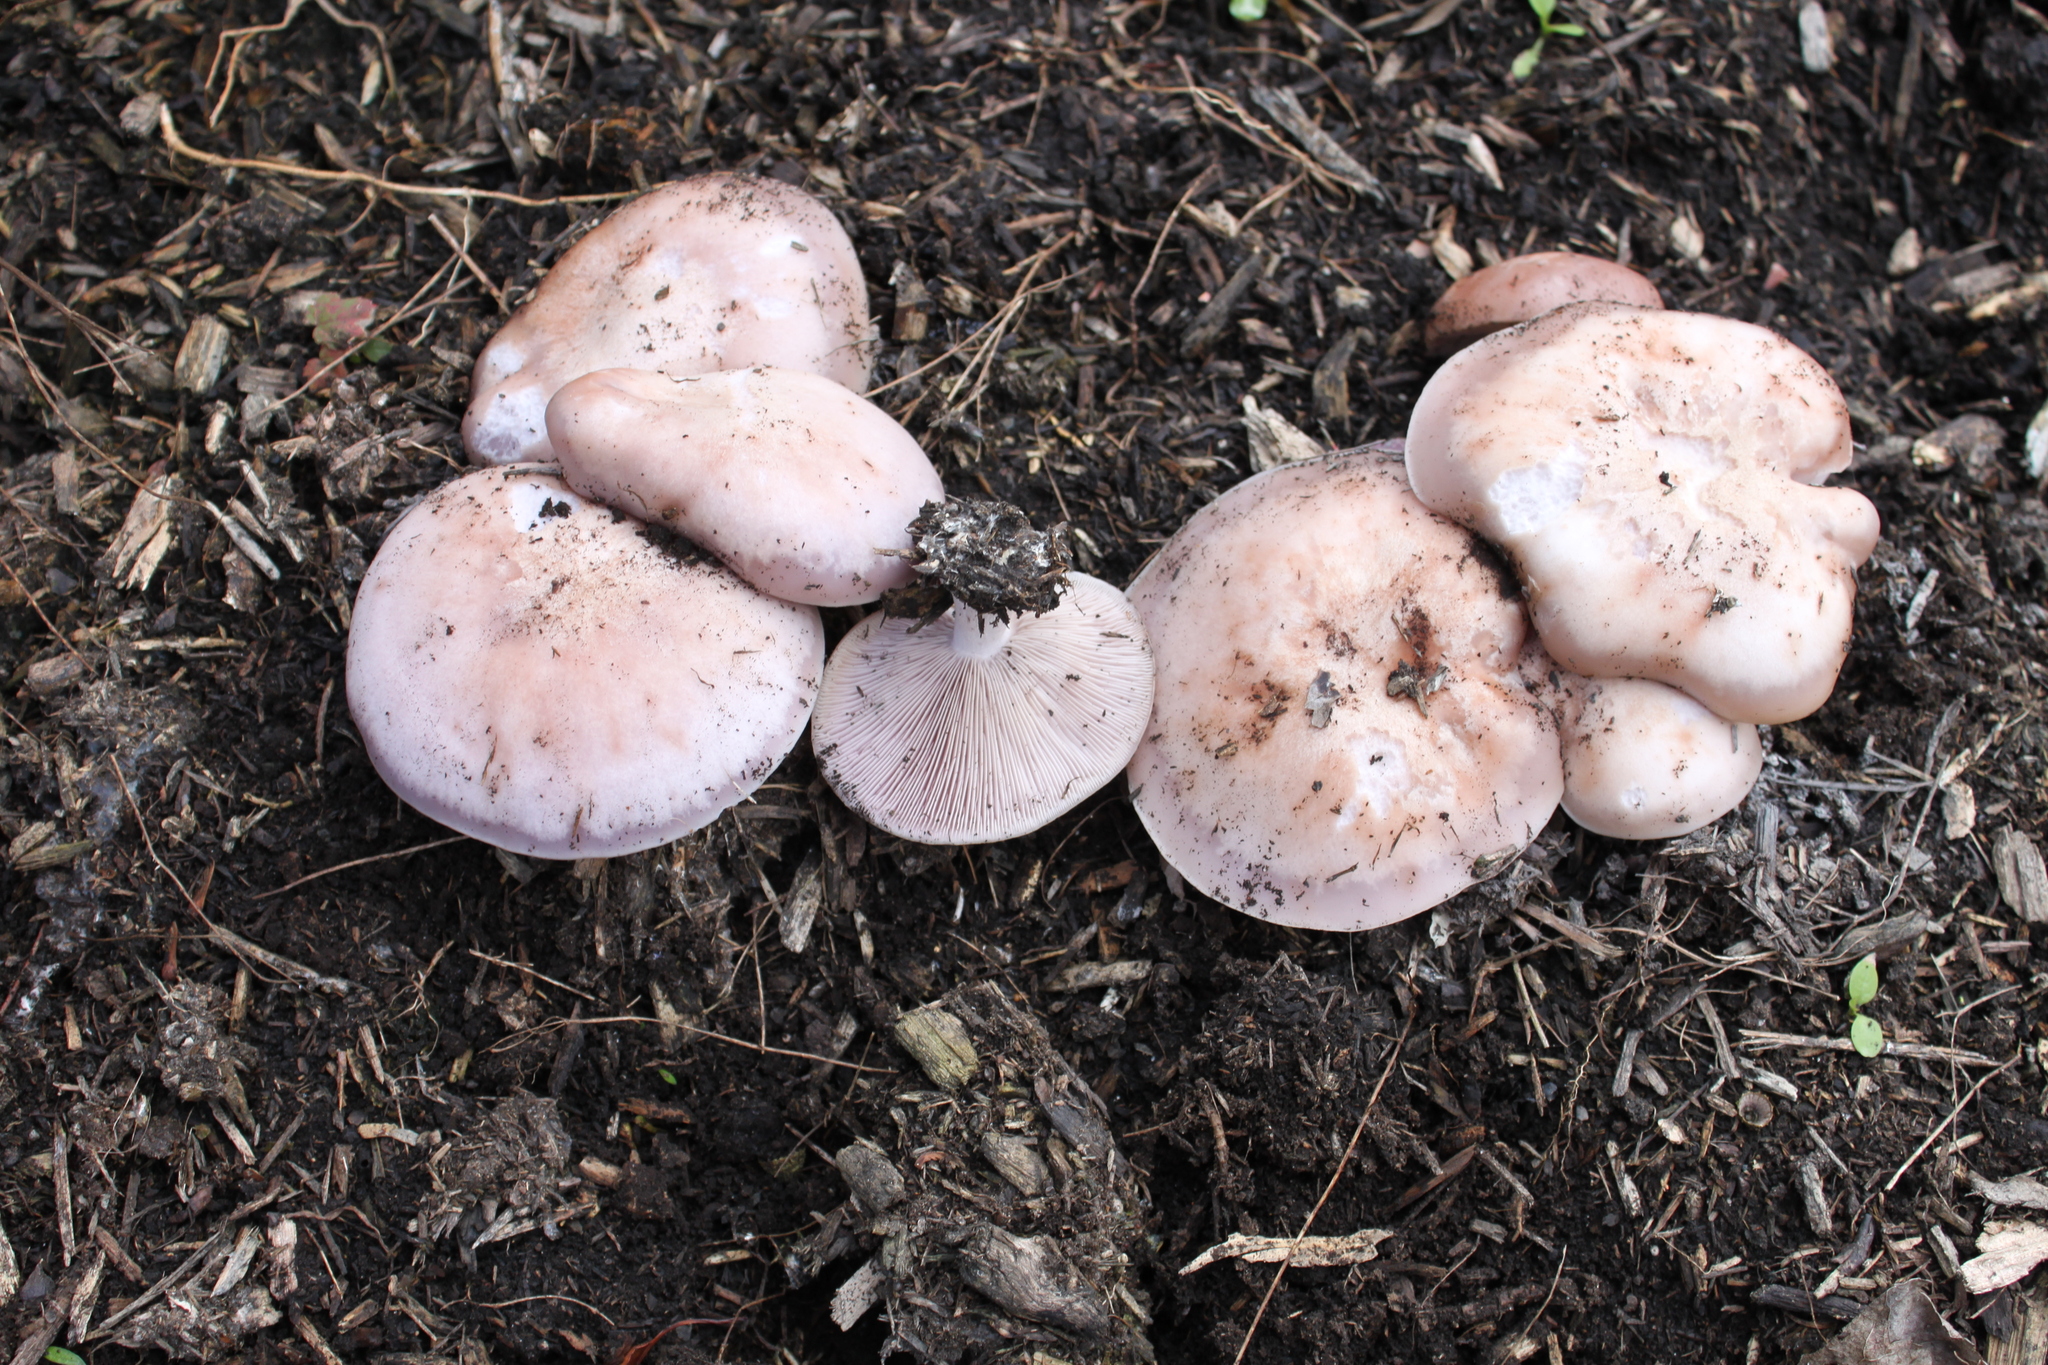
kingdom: Fungi
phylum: Basidiomycota
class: Agaricomycetes
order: Agaricales
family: Tricholomataceae
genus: Collybia
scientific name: Collybia
